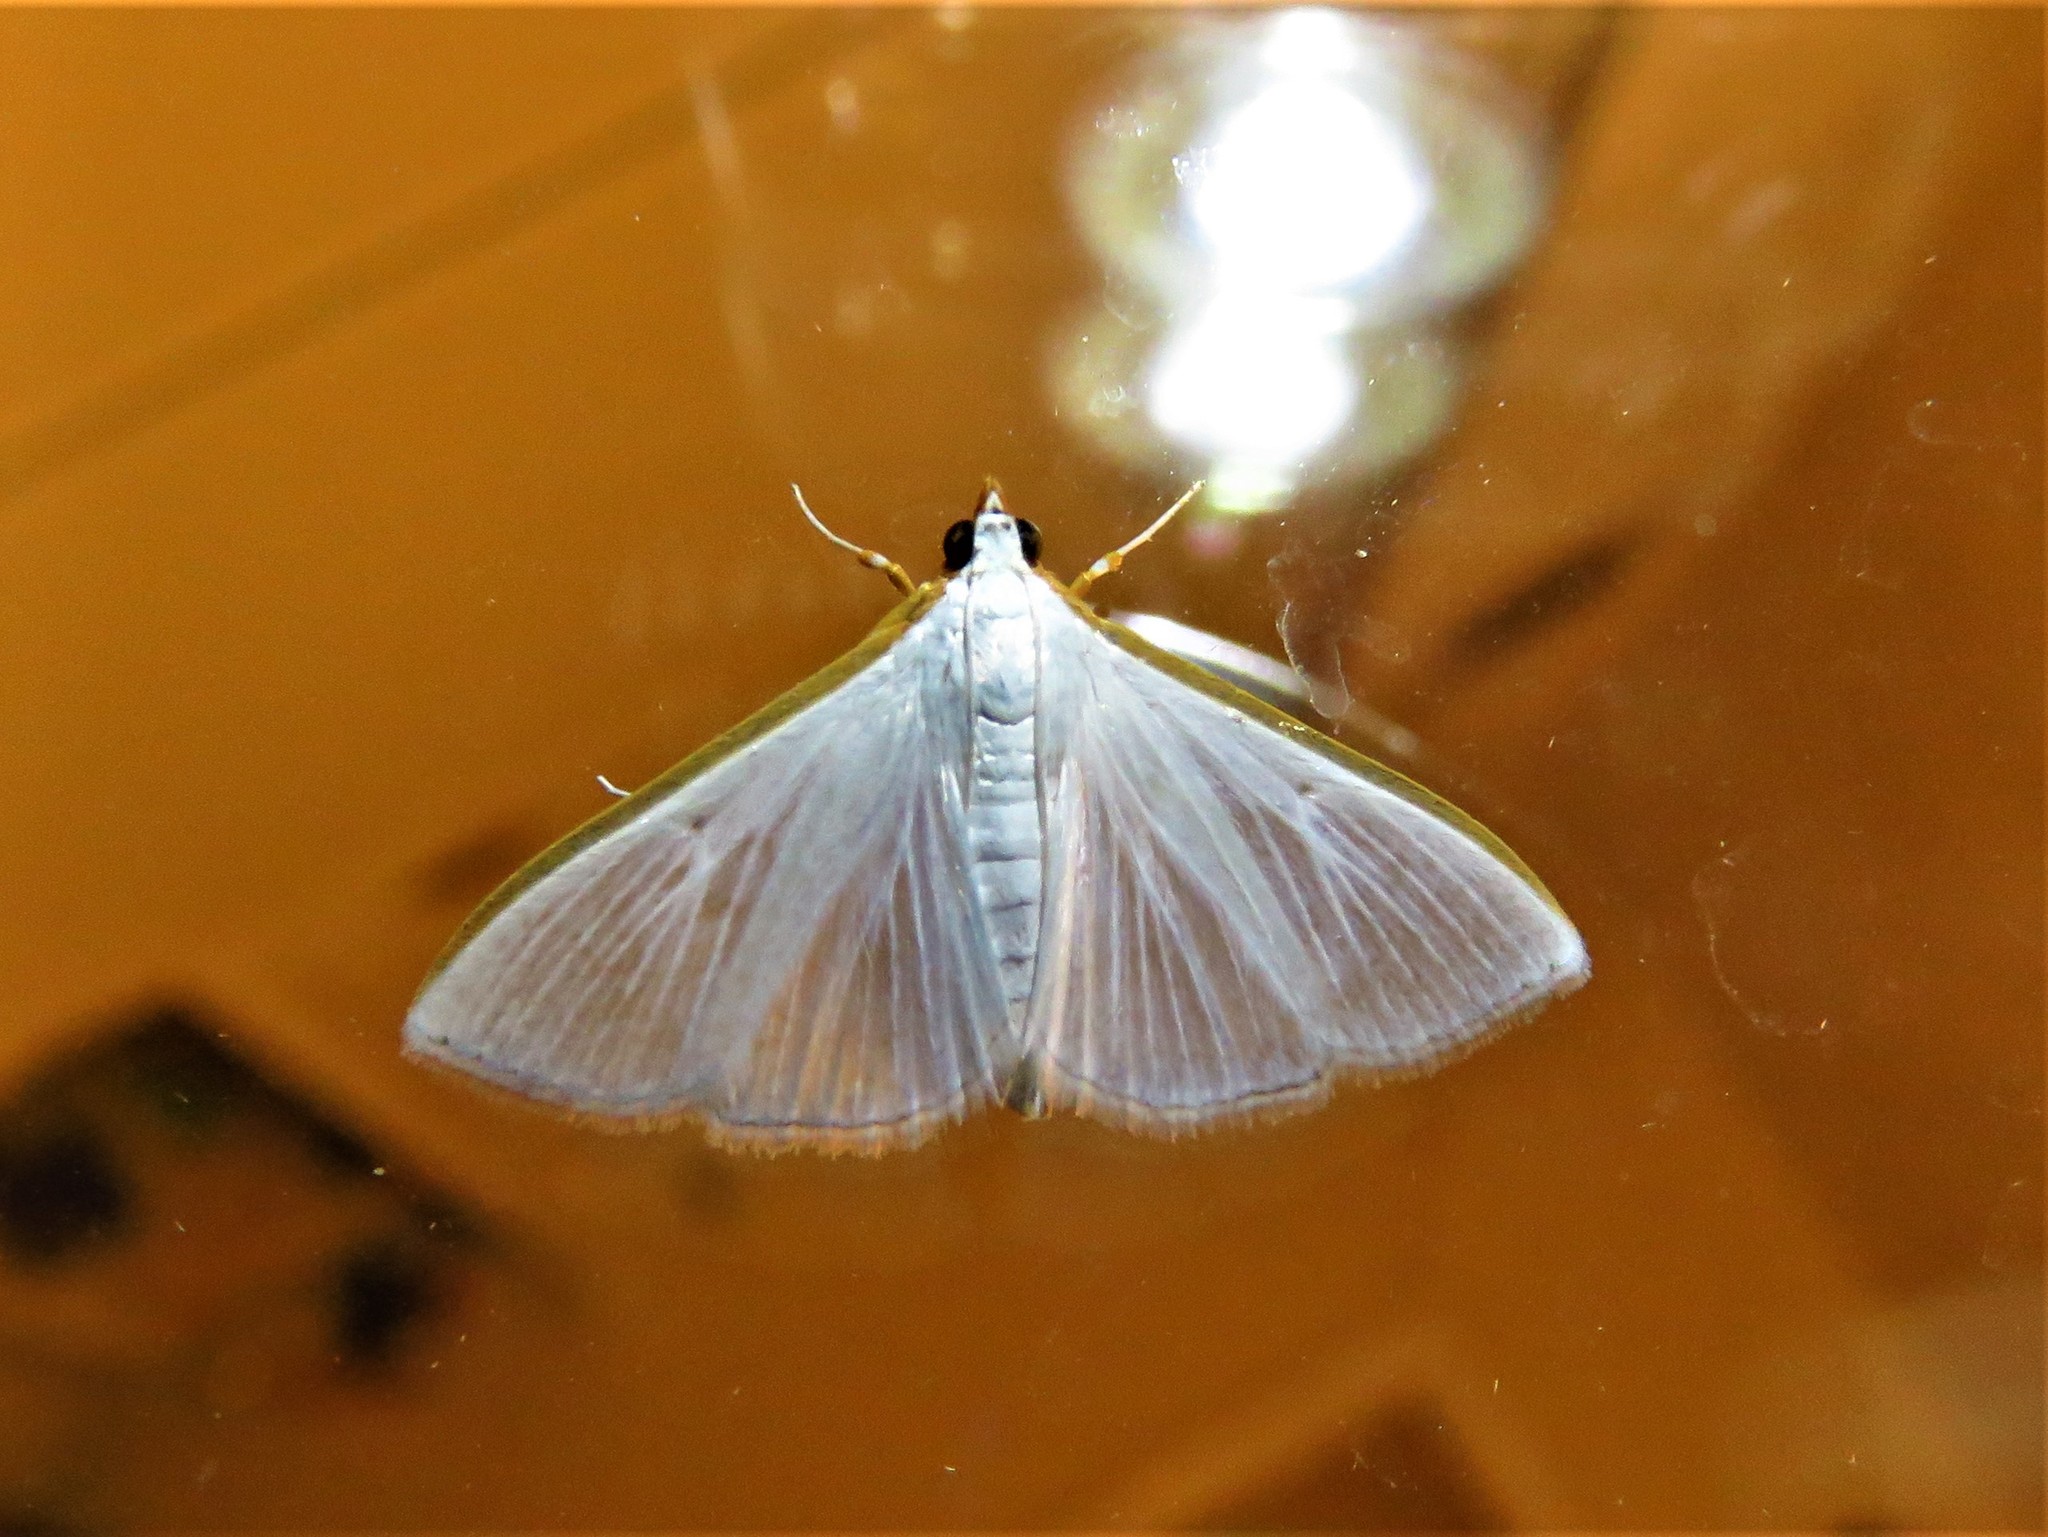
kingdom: Animalia
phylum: Arthropoda
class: Insecta
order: Lepidoptera
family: Crambidae
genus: Diaphania
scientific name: Diaphania costata
